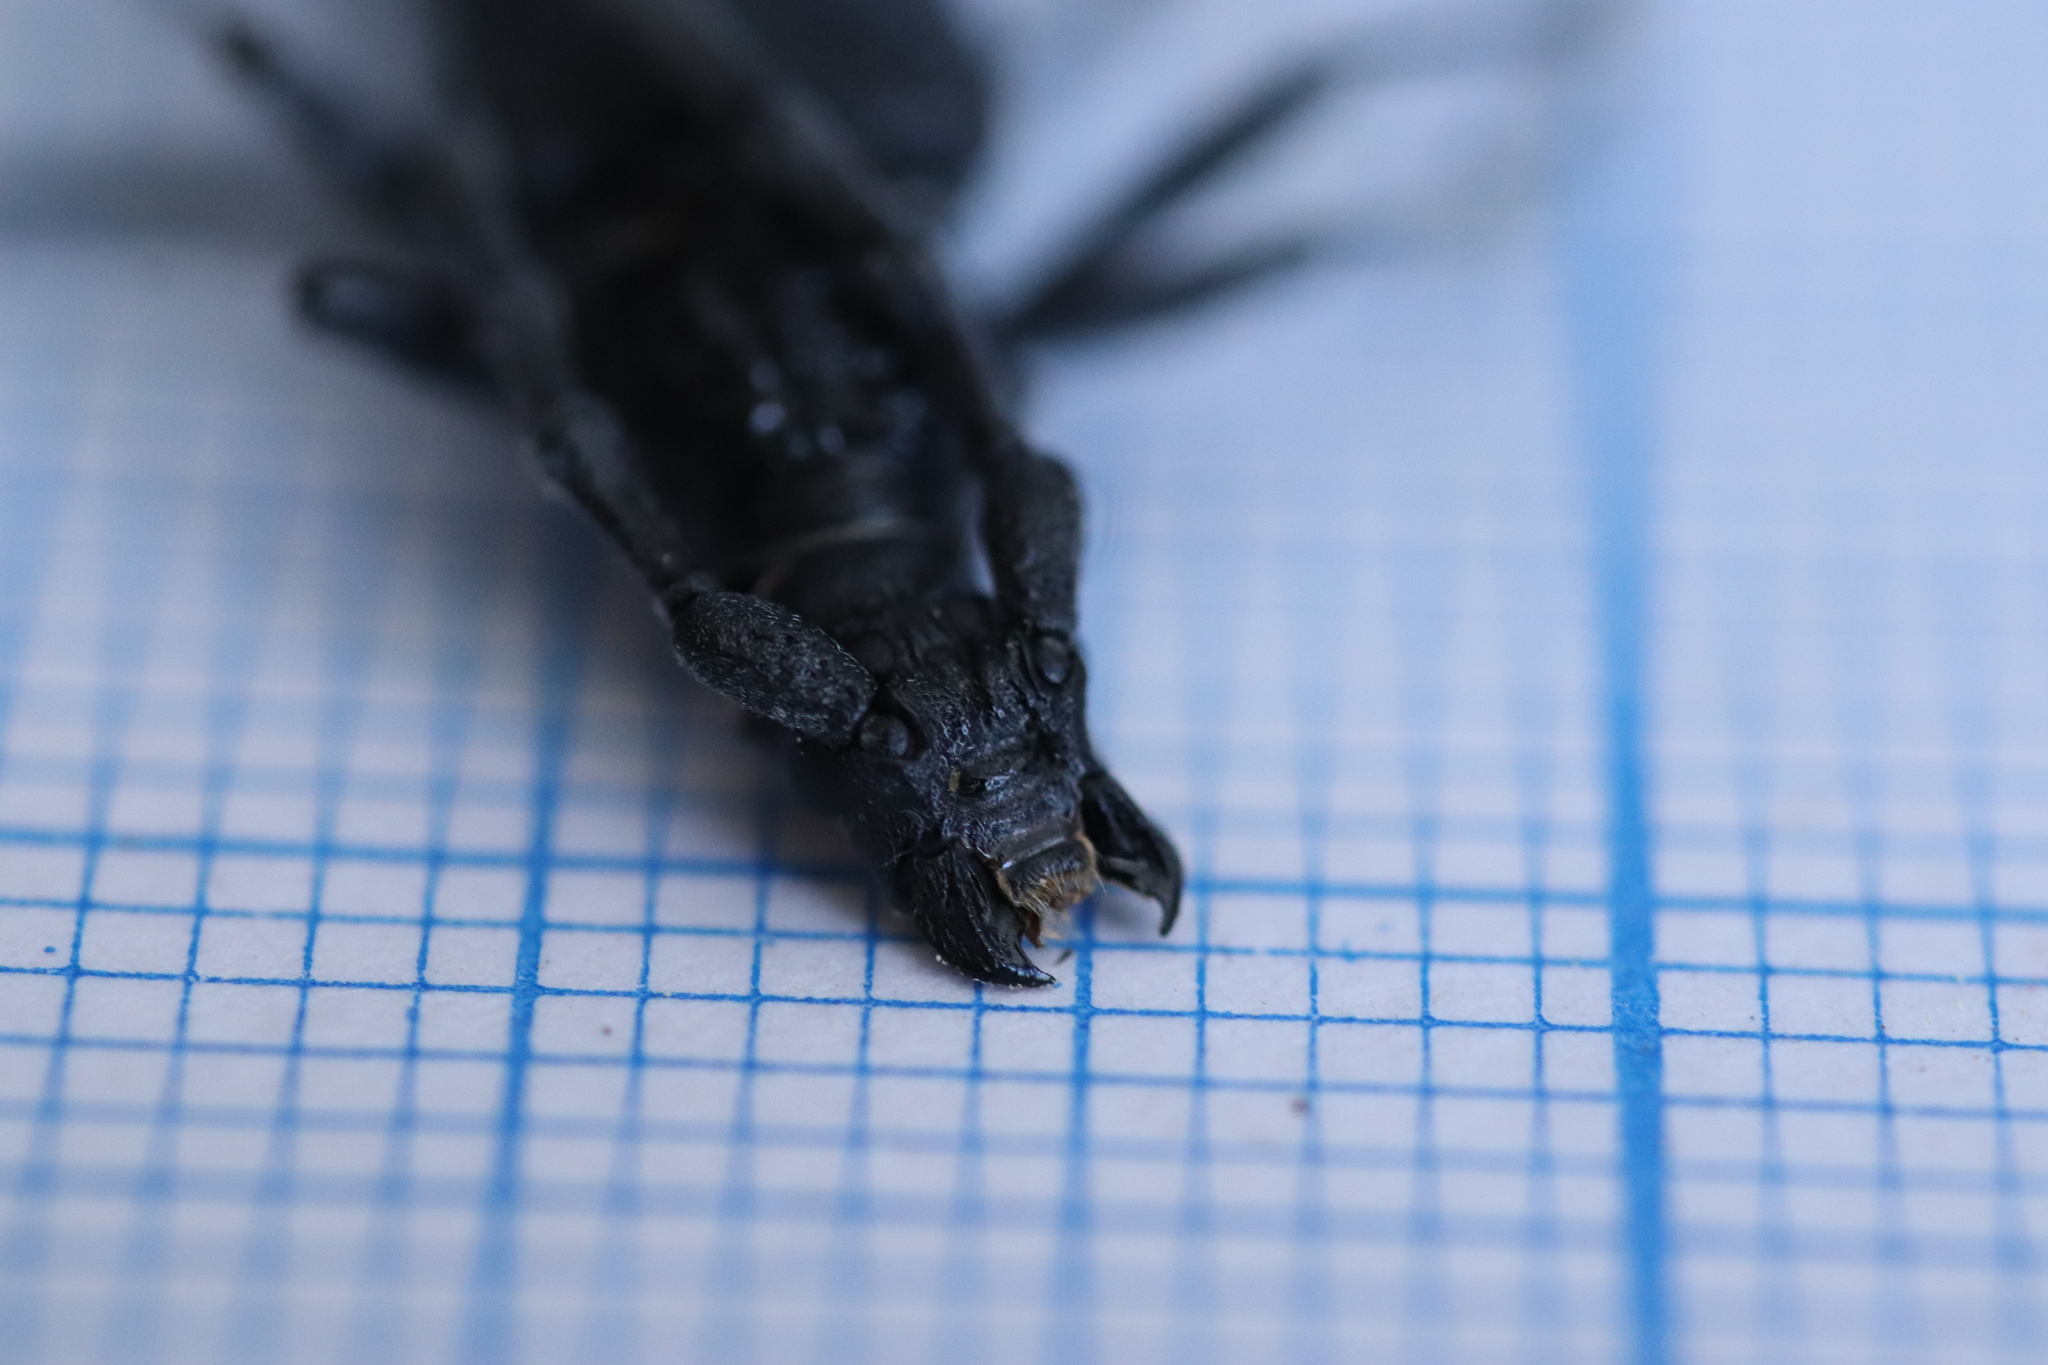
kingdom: Animalia
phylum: Arthropoda
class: Insecta
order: Coleoptera
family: Cerambycidae
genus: Cerambyx
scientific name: Cerambyx scopolii
